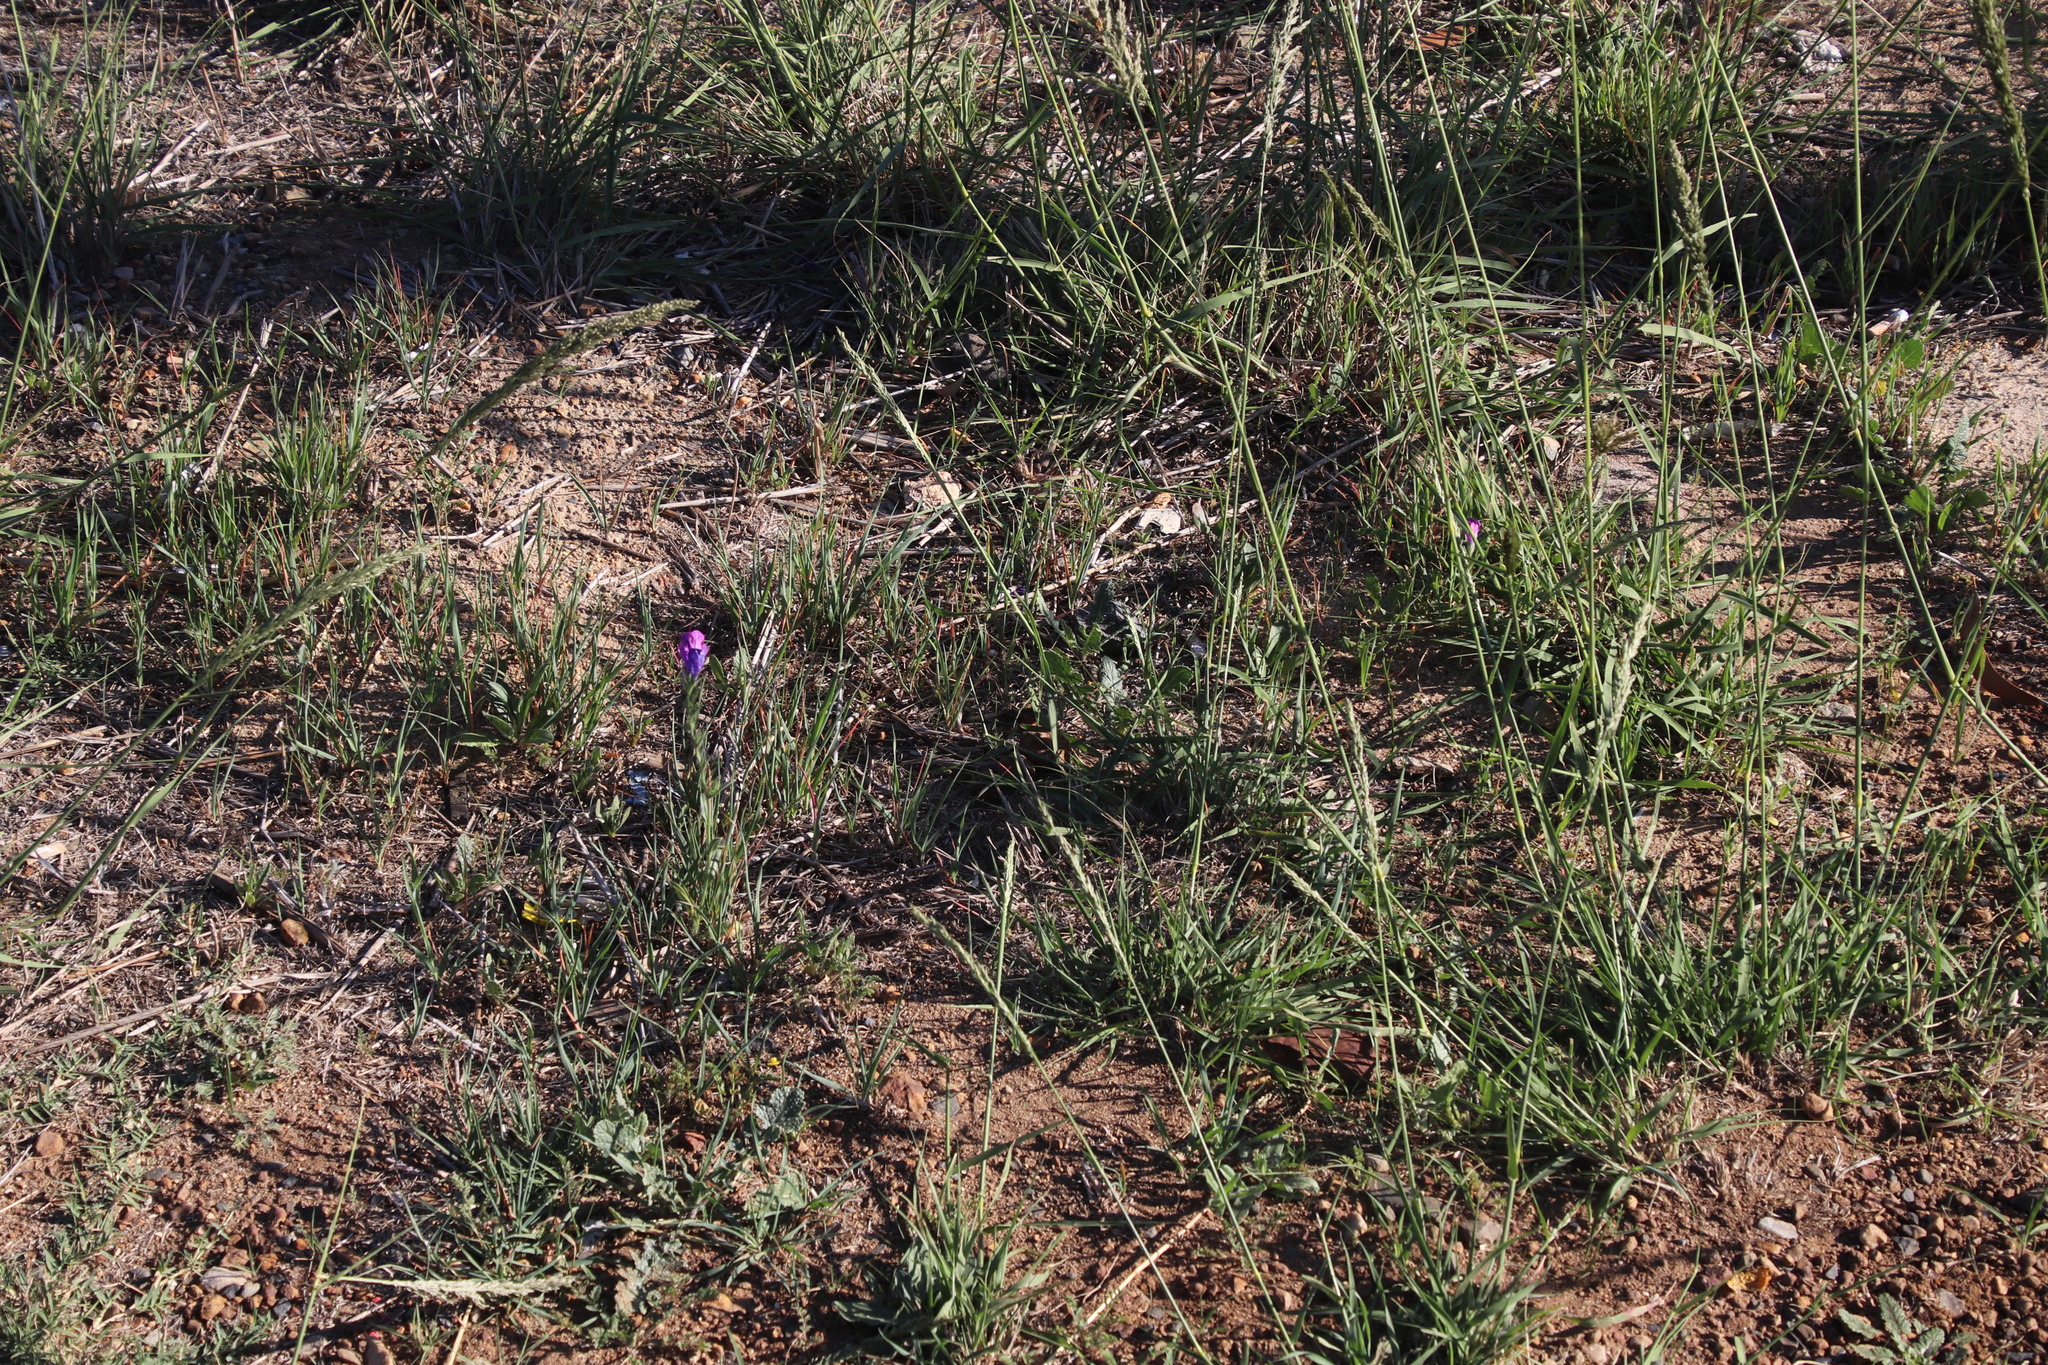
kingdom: Plantae
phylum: Tracheophyta
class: Magnoliopsida
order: Boraginales
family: Boraginaceae
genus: Echium
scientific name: Echium plantagineum
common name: Purple viper's-bugloss
